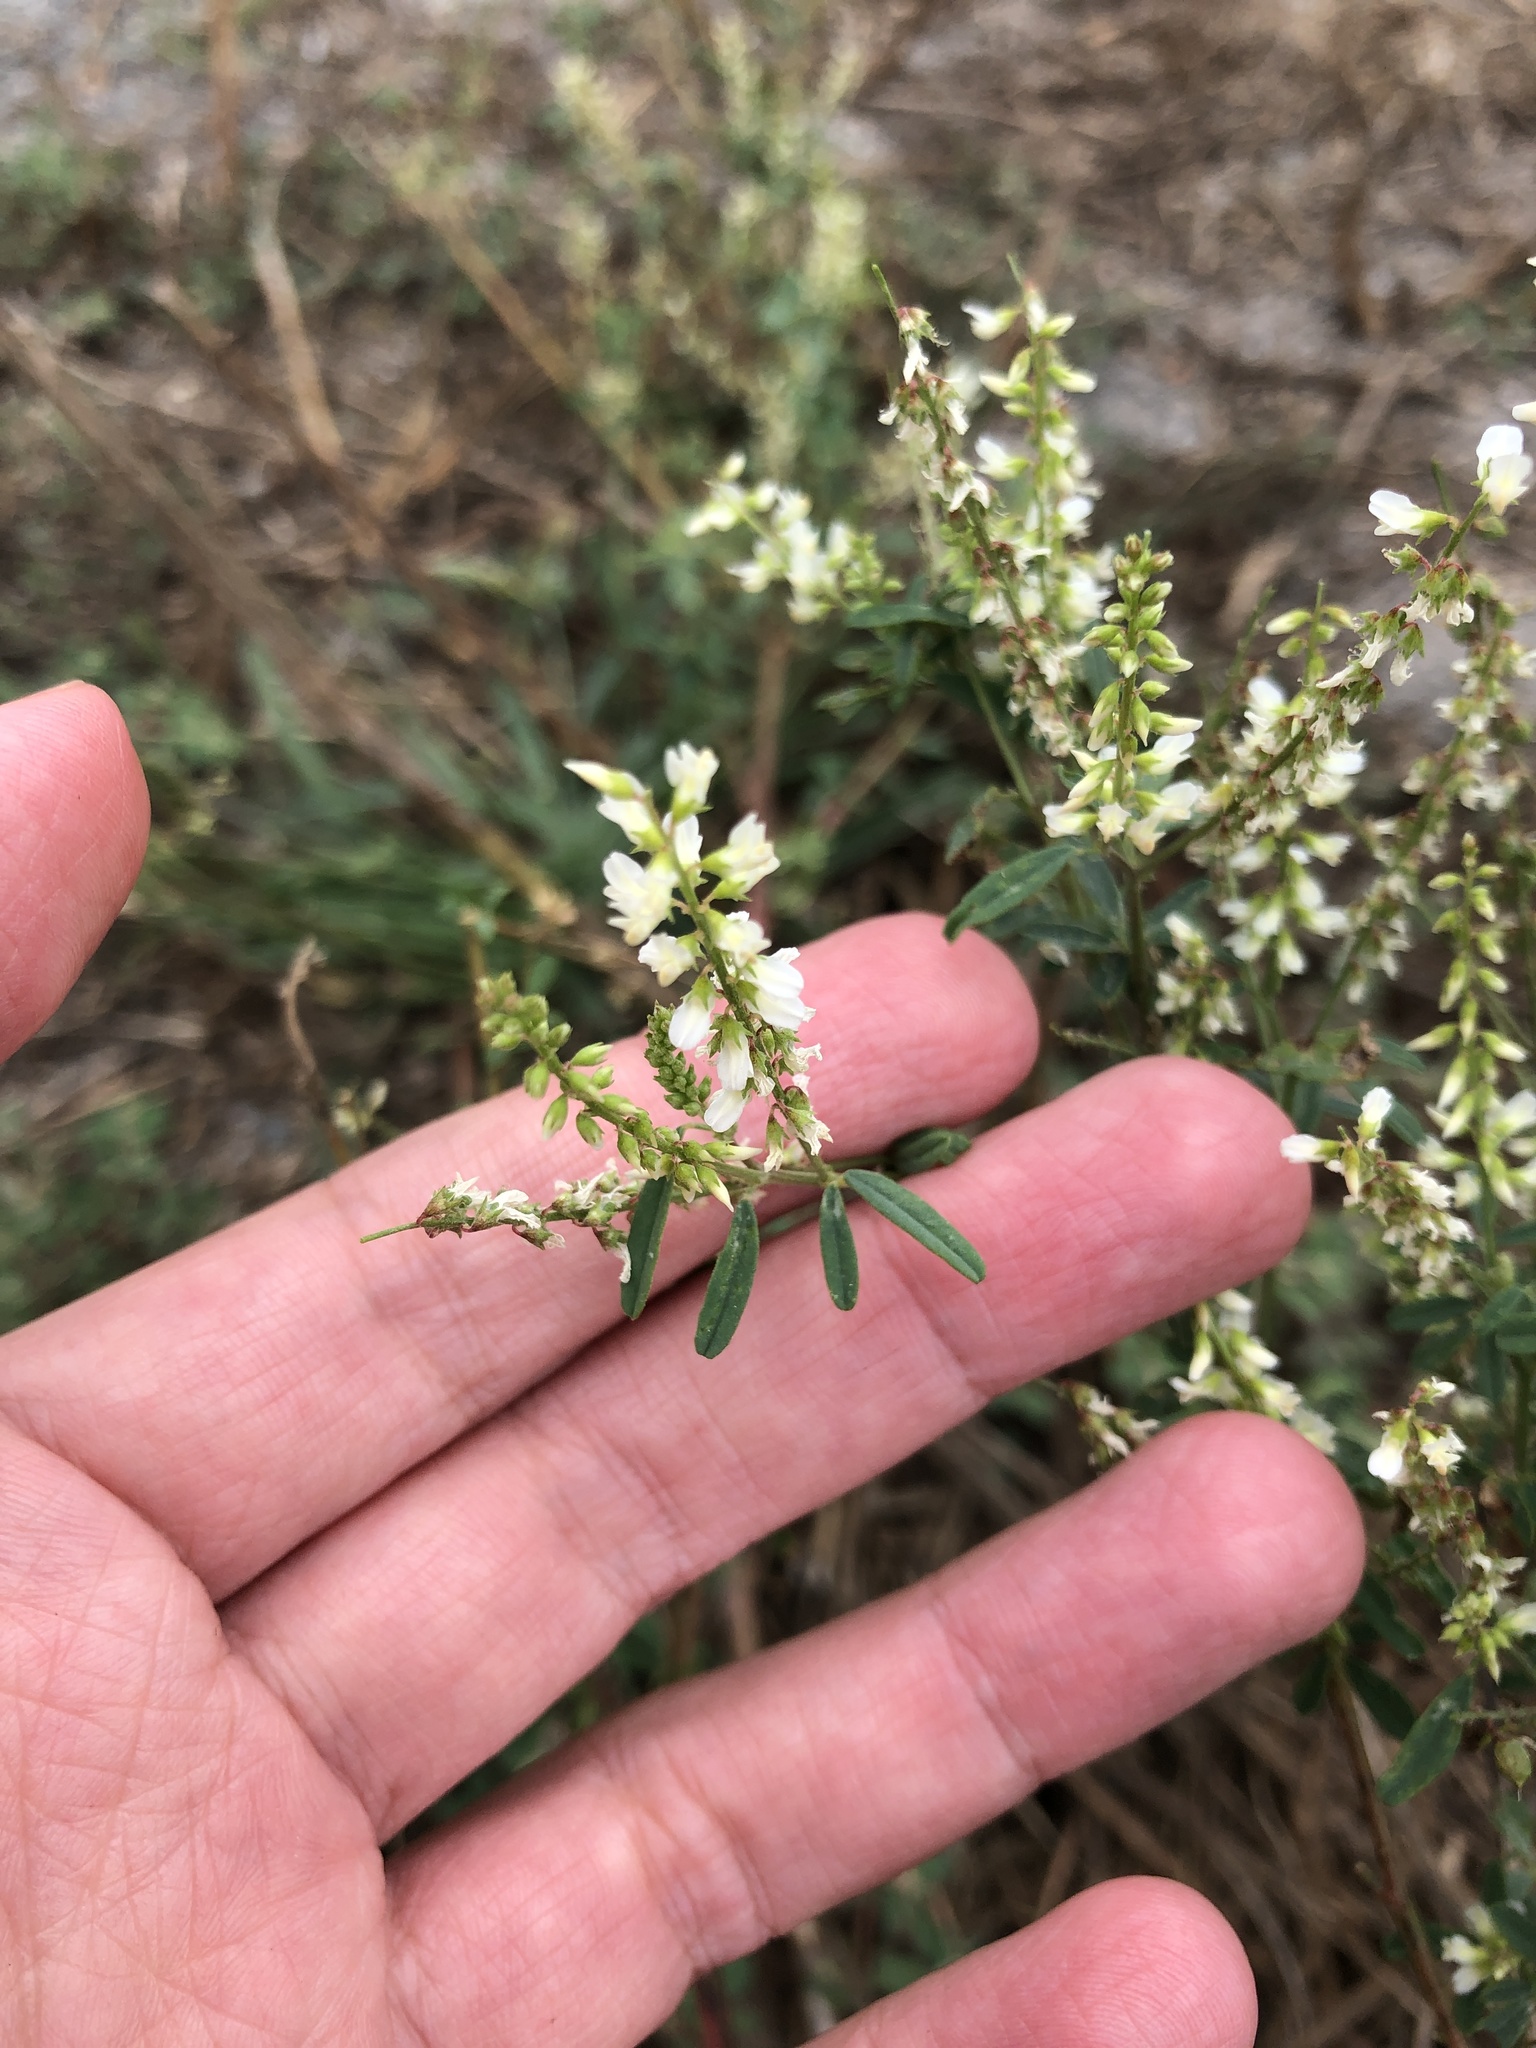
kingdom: Plantae
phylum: Tracheophyta
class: Magnoliopsida
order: Fabales
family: Fabaceae
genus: Melilotus
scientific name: Melilotus albus
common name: White melilot
